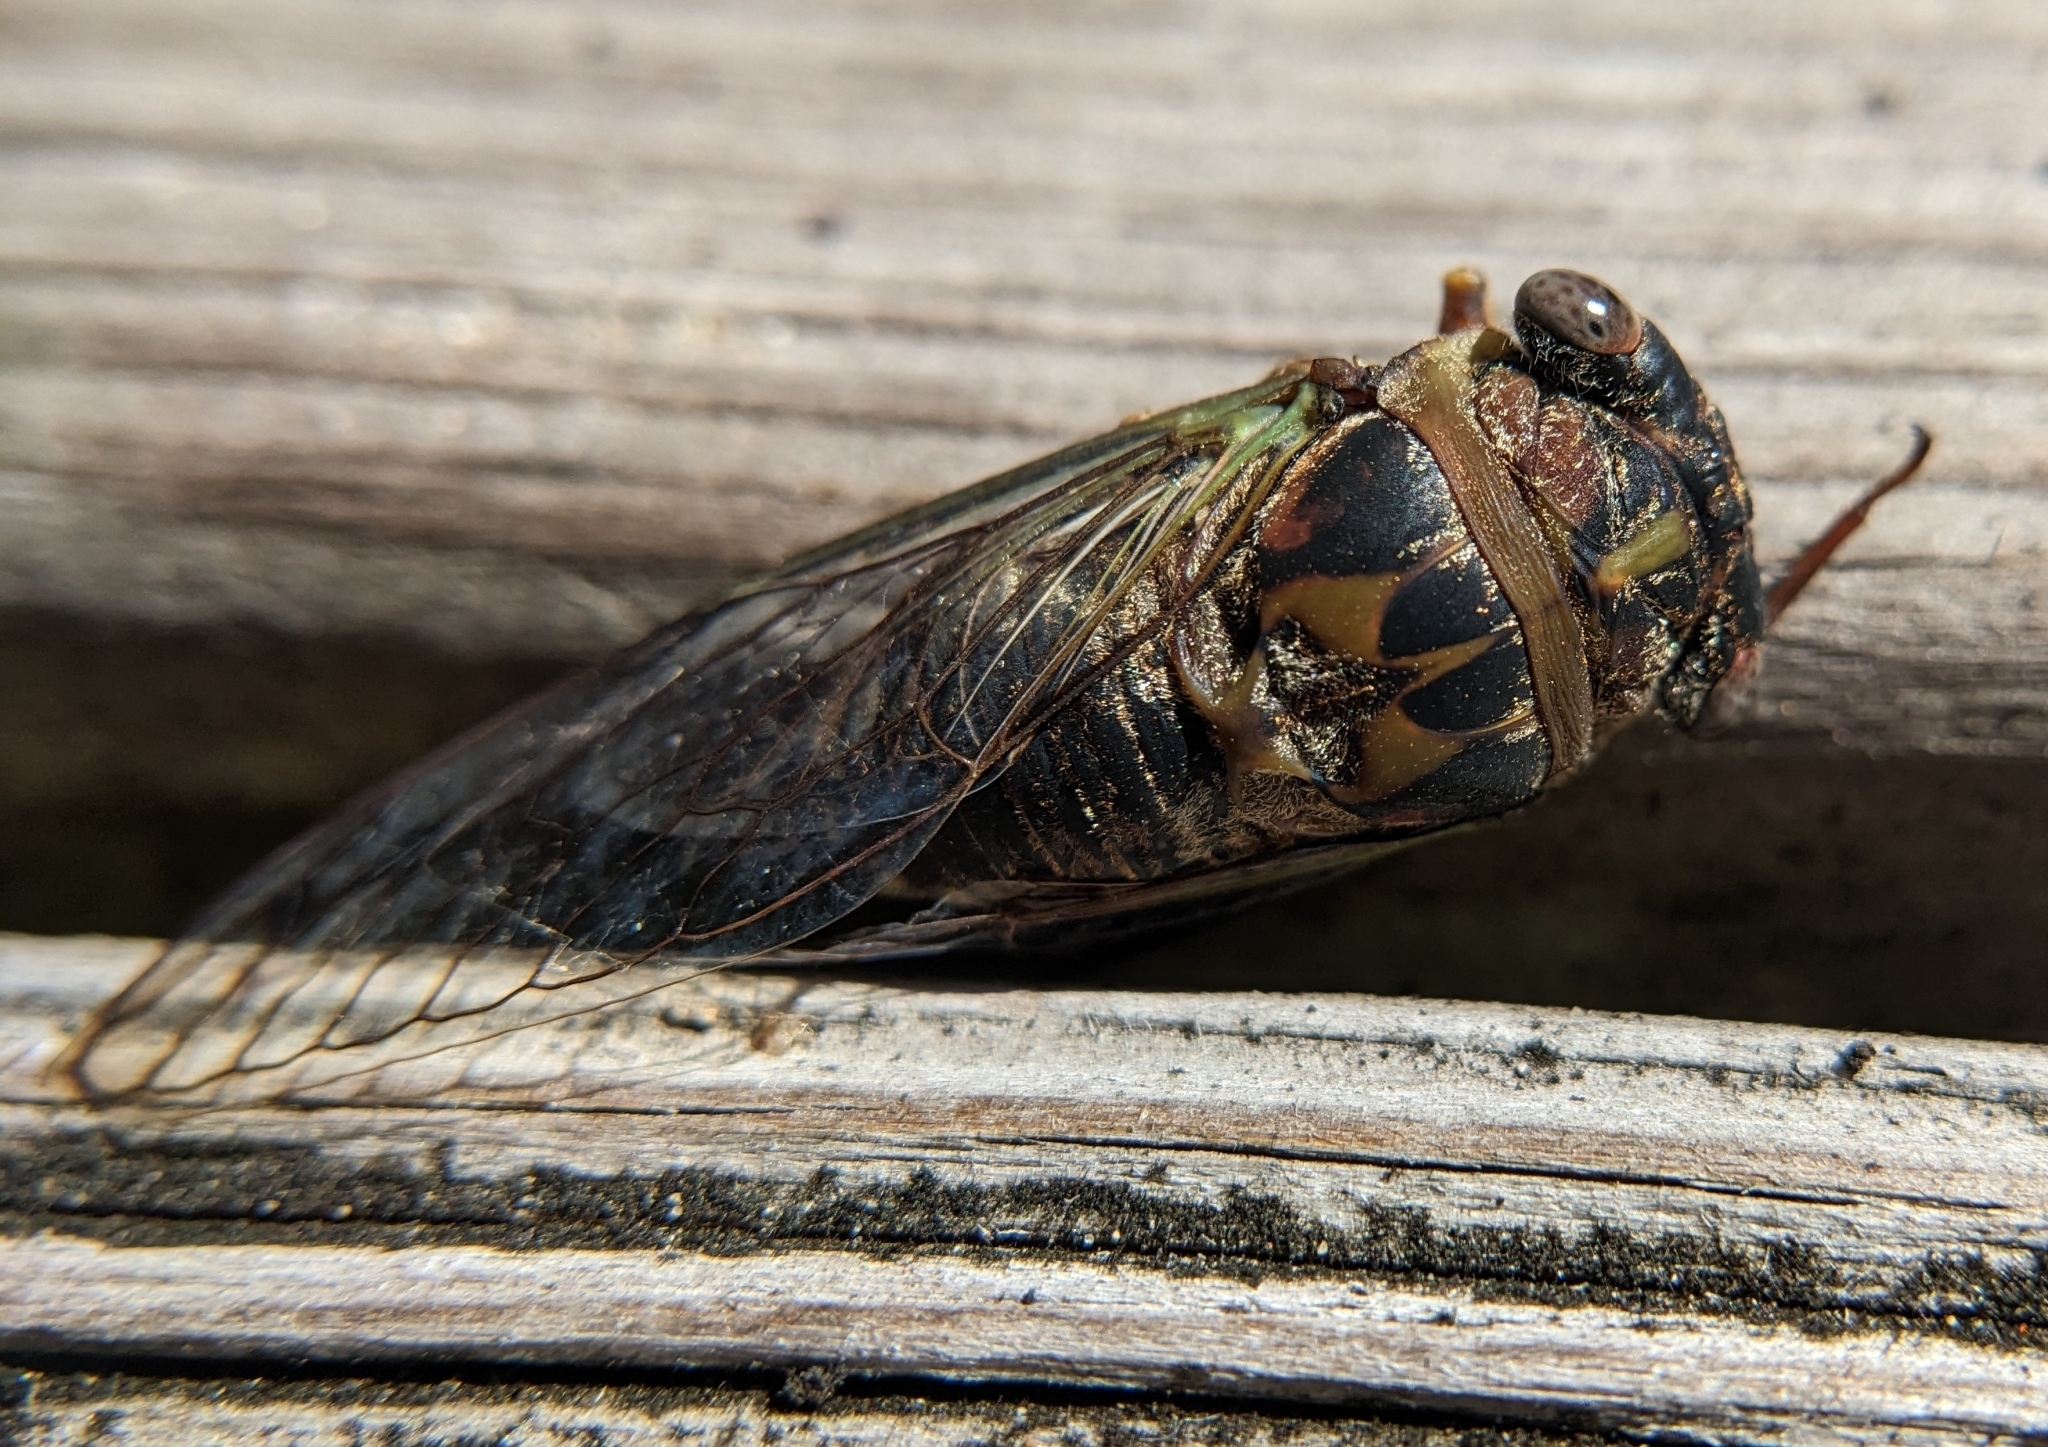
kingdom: Animalia
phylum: Arthropoda
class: Insecta
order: Hemiptera
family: Cicadidae
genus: Neotibicen
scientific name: Neotibicen davisi
